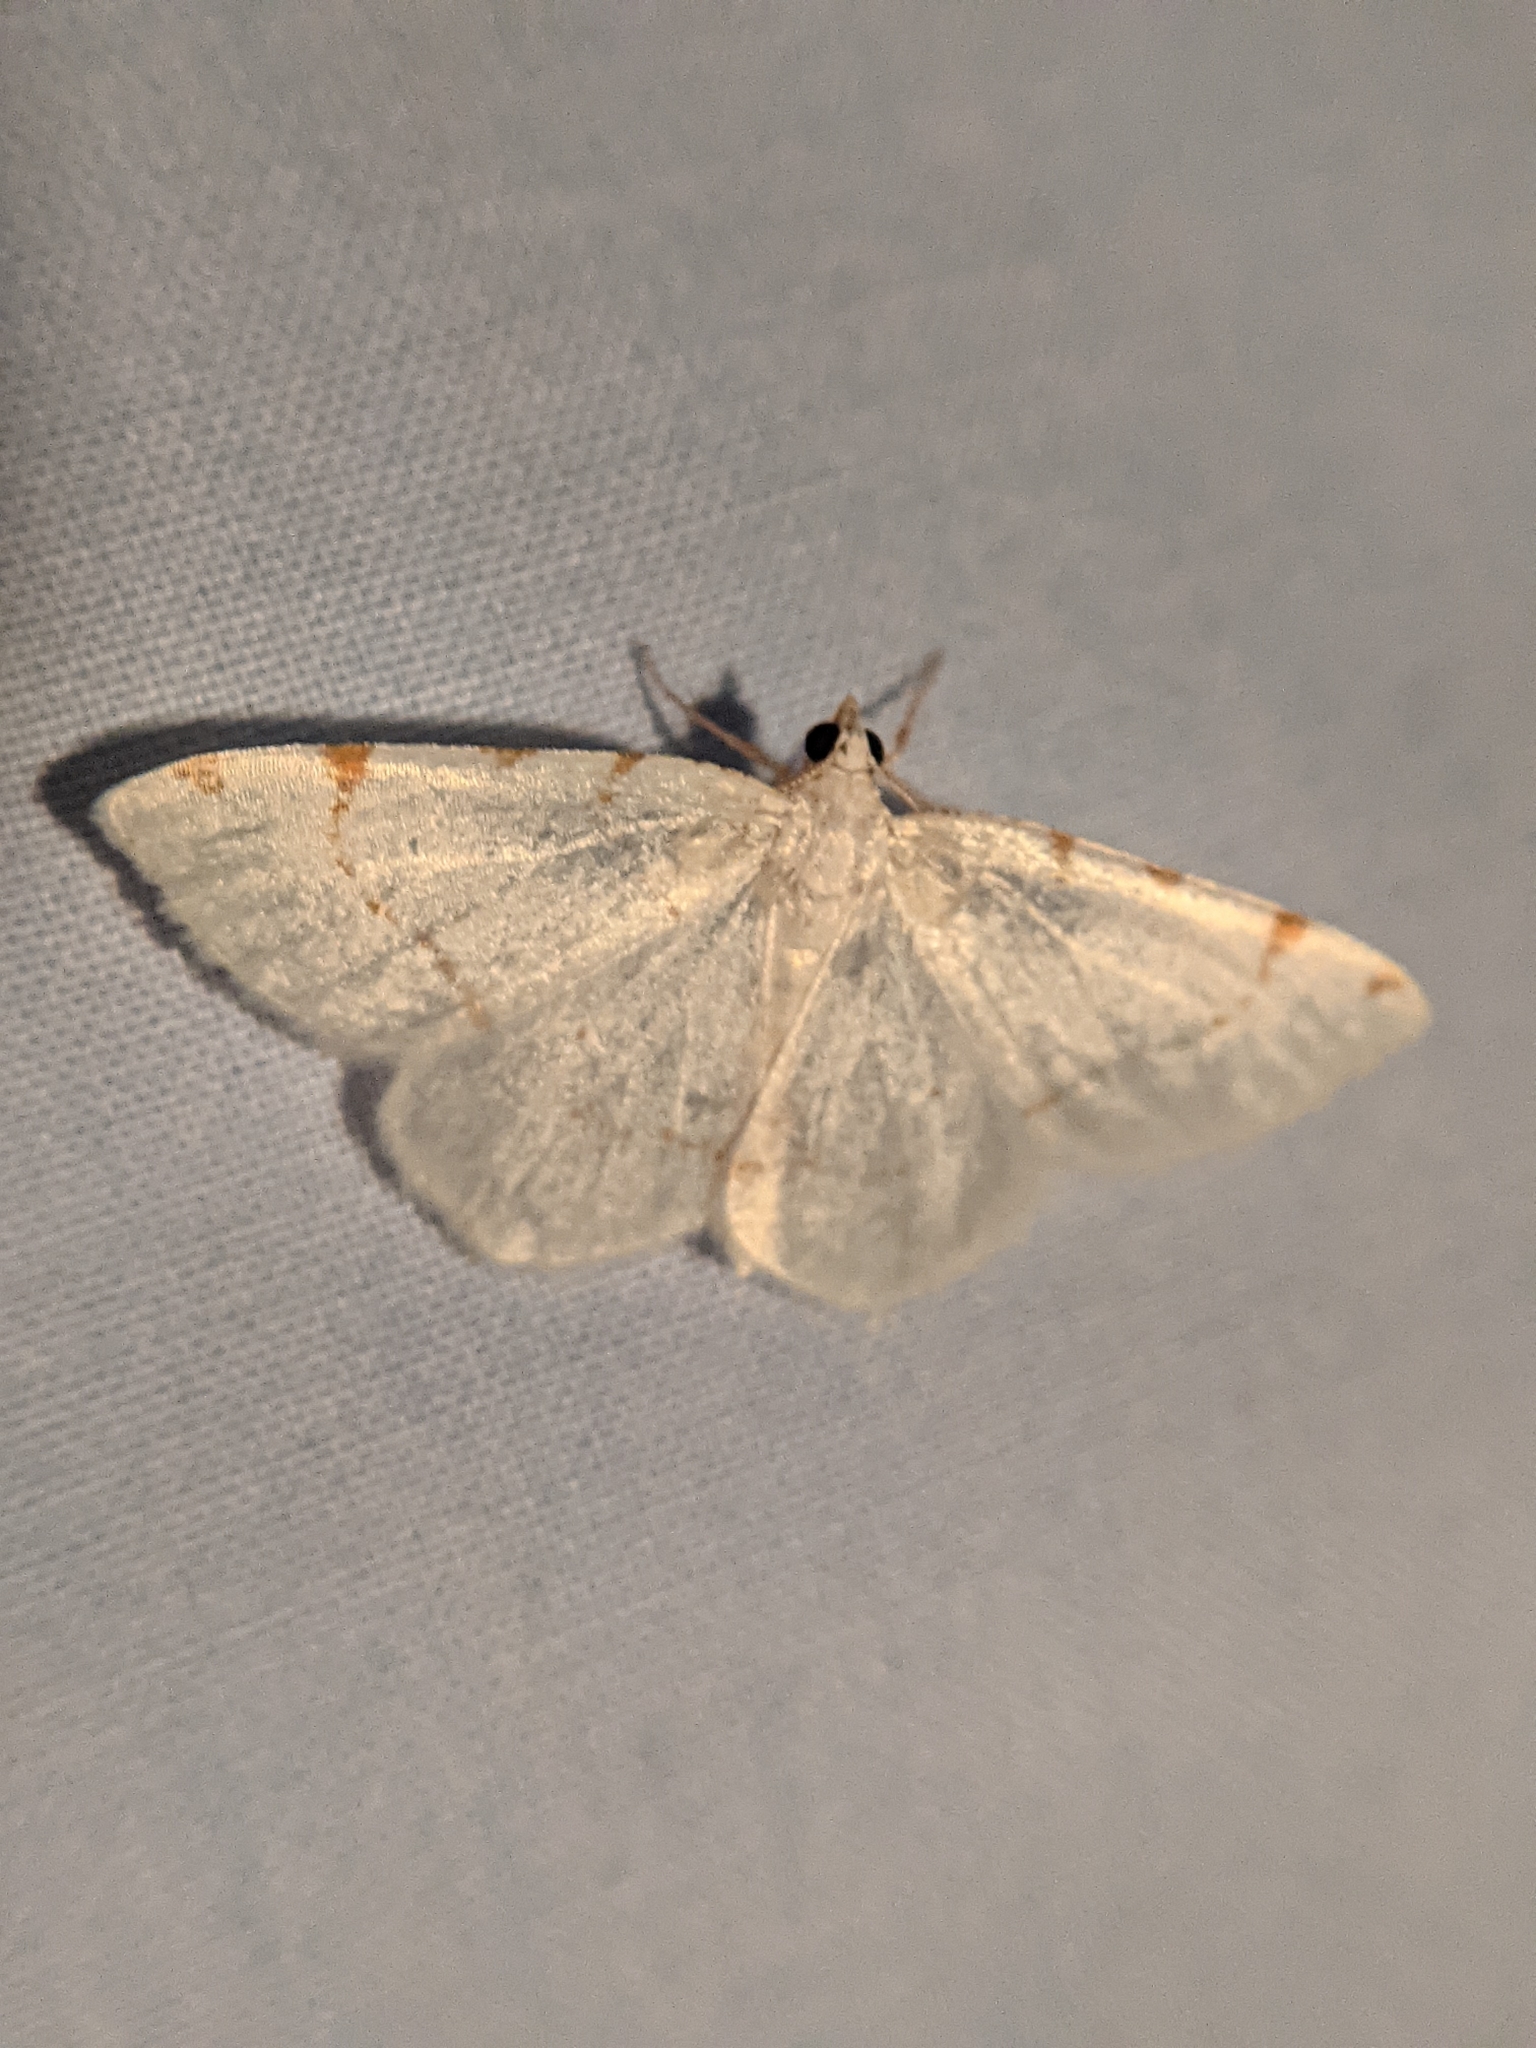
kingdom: Animalia
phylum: Arthropoda
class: Insecta
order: Lepidoptera
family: Geometridae
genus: Macaria
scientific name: Macaria pustularia
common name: Lesser maple spanworm moth
